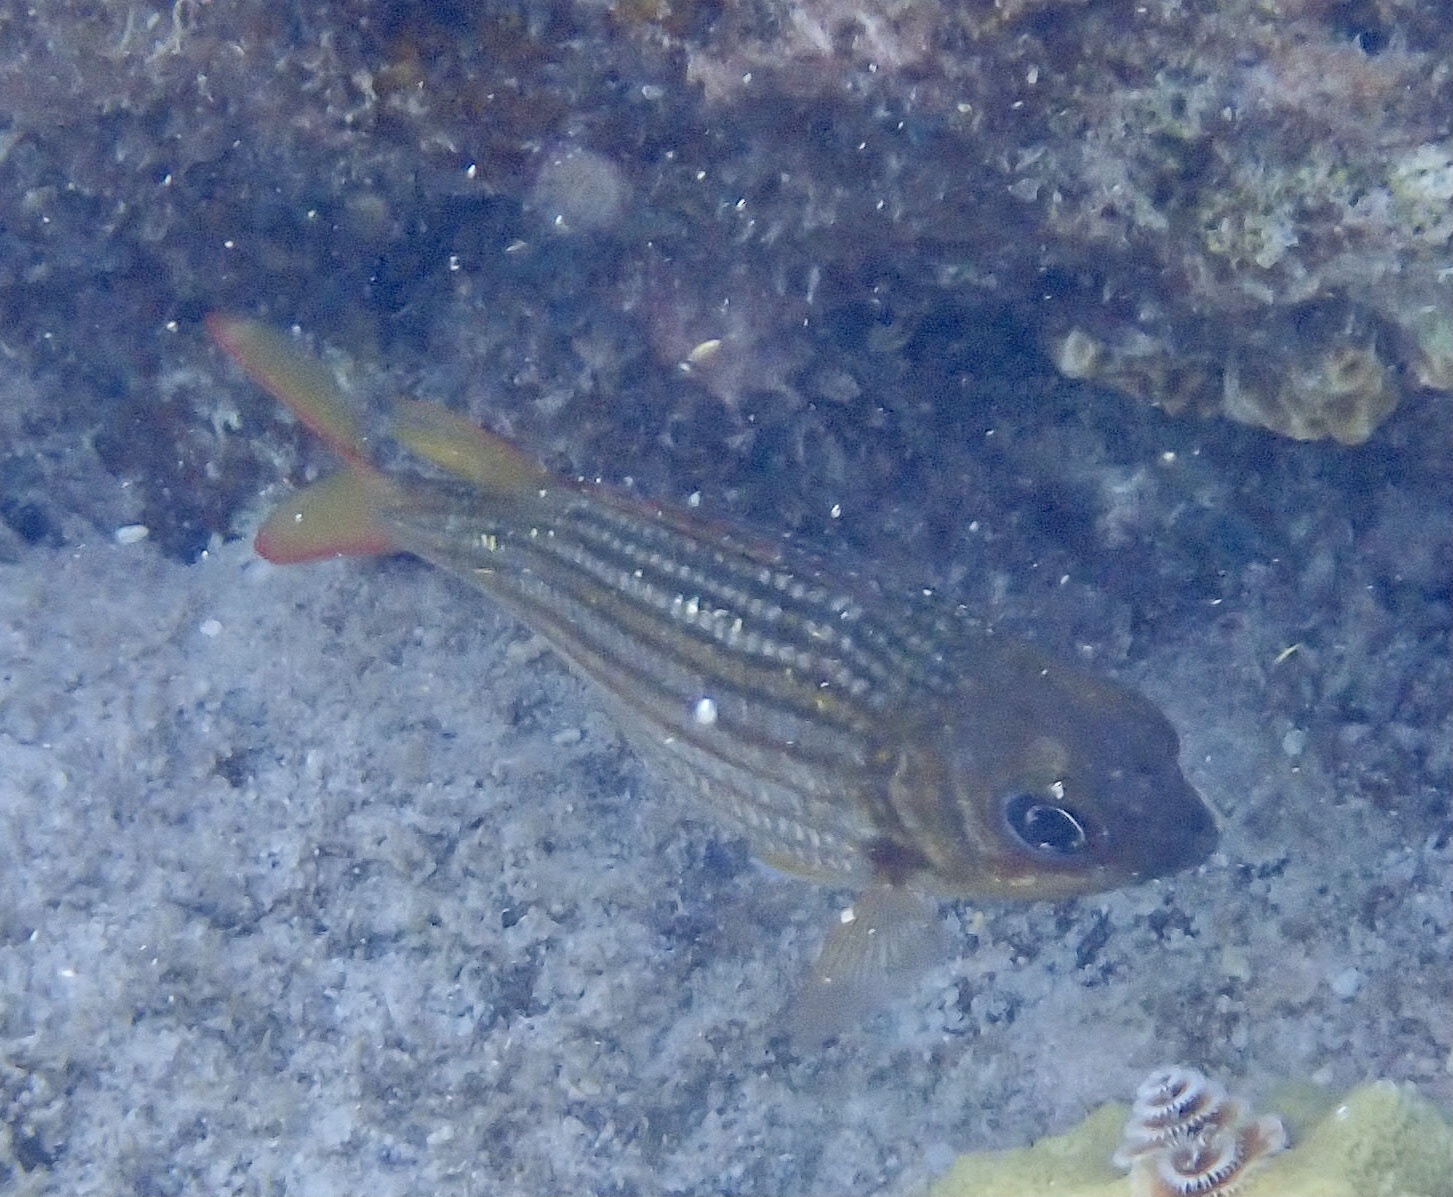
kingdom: Animalia
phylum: Chordata
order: Beryciformes
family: Holocentridae
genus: Neoniphon
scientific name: Neoniphon vexillarium
